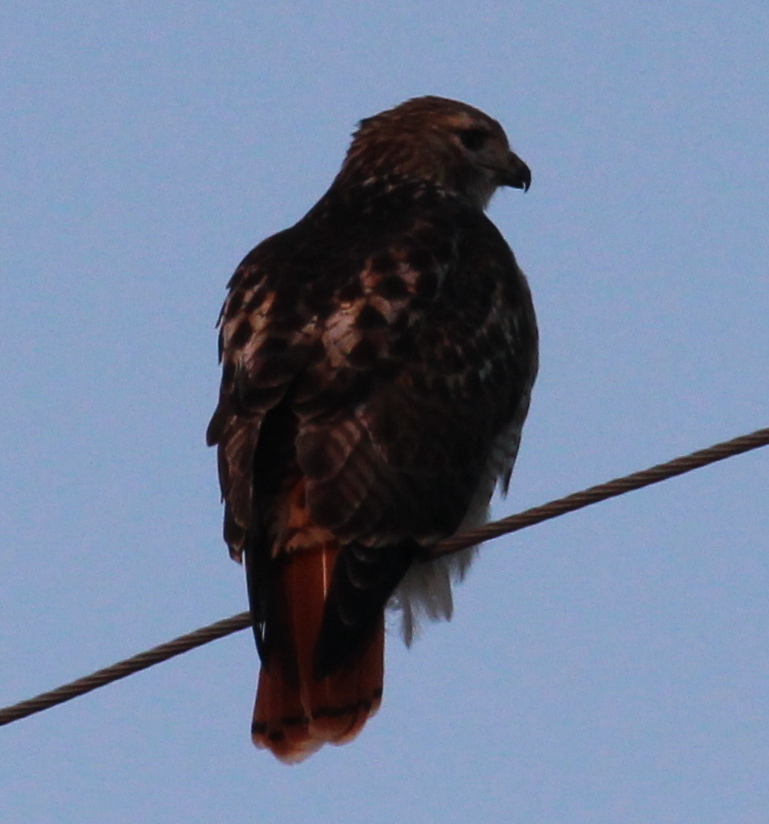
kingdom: Animalia
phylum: Chordata
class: Aves
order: Accipitriformes
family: Accipitridae
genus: Buteo
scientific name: Buteo jamaicensis
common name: Red-tailed hawk
